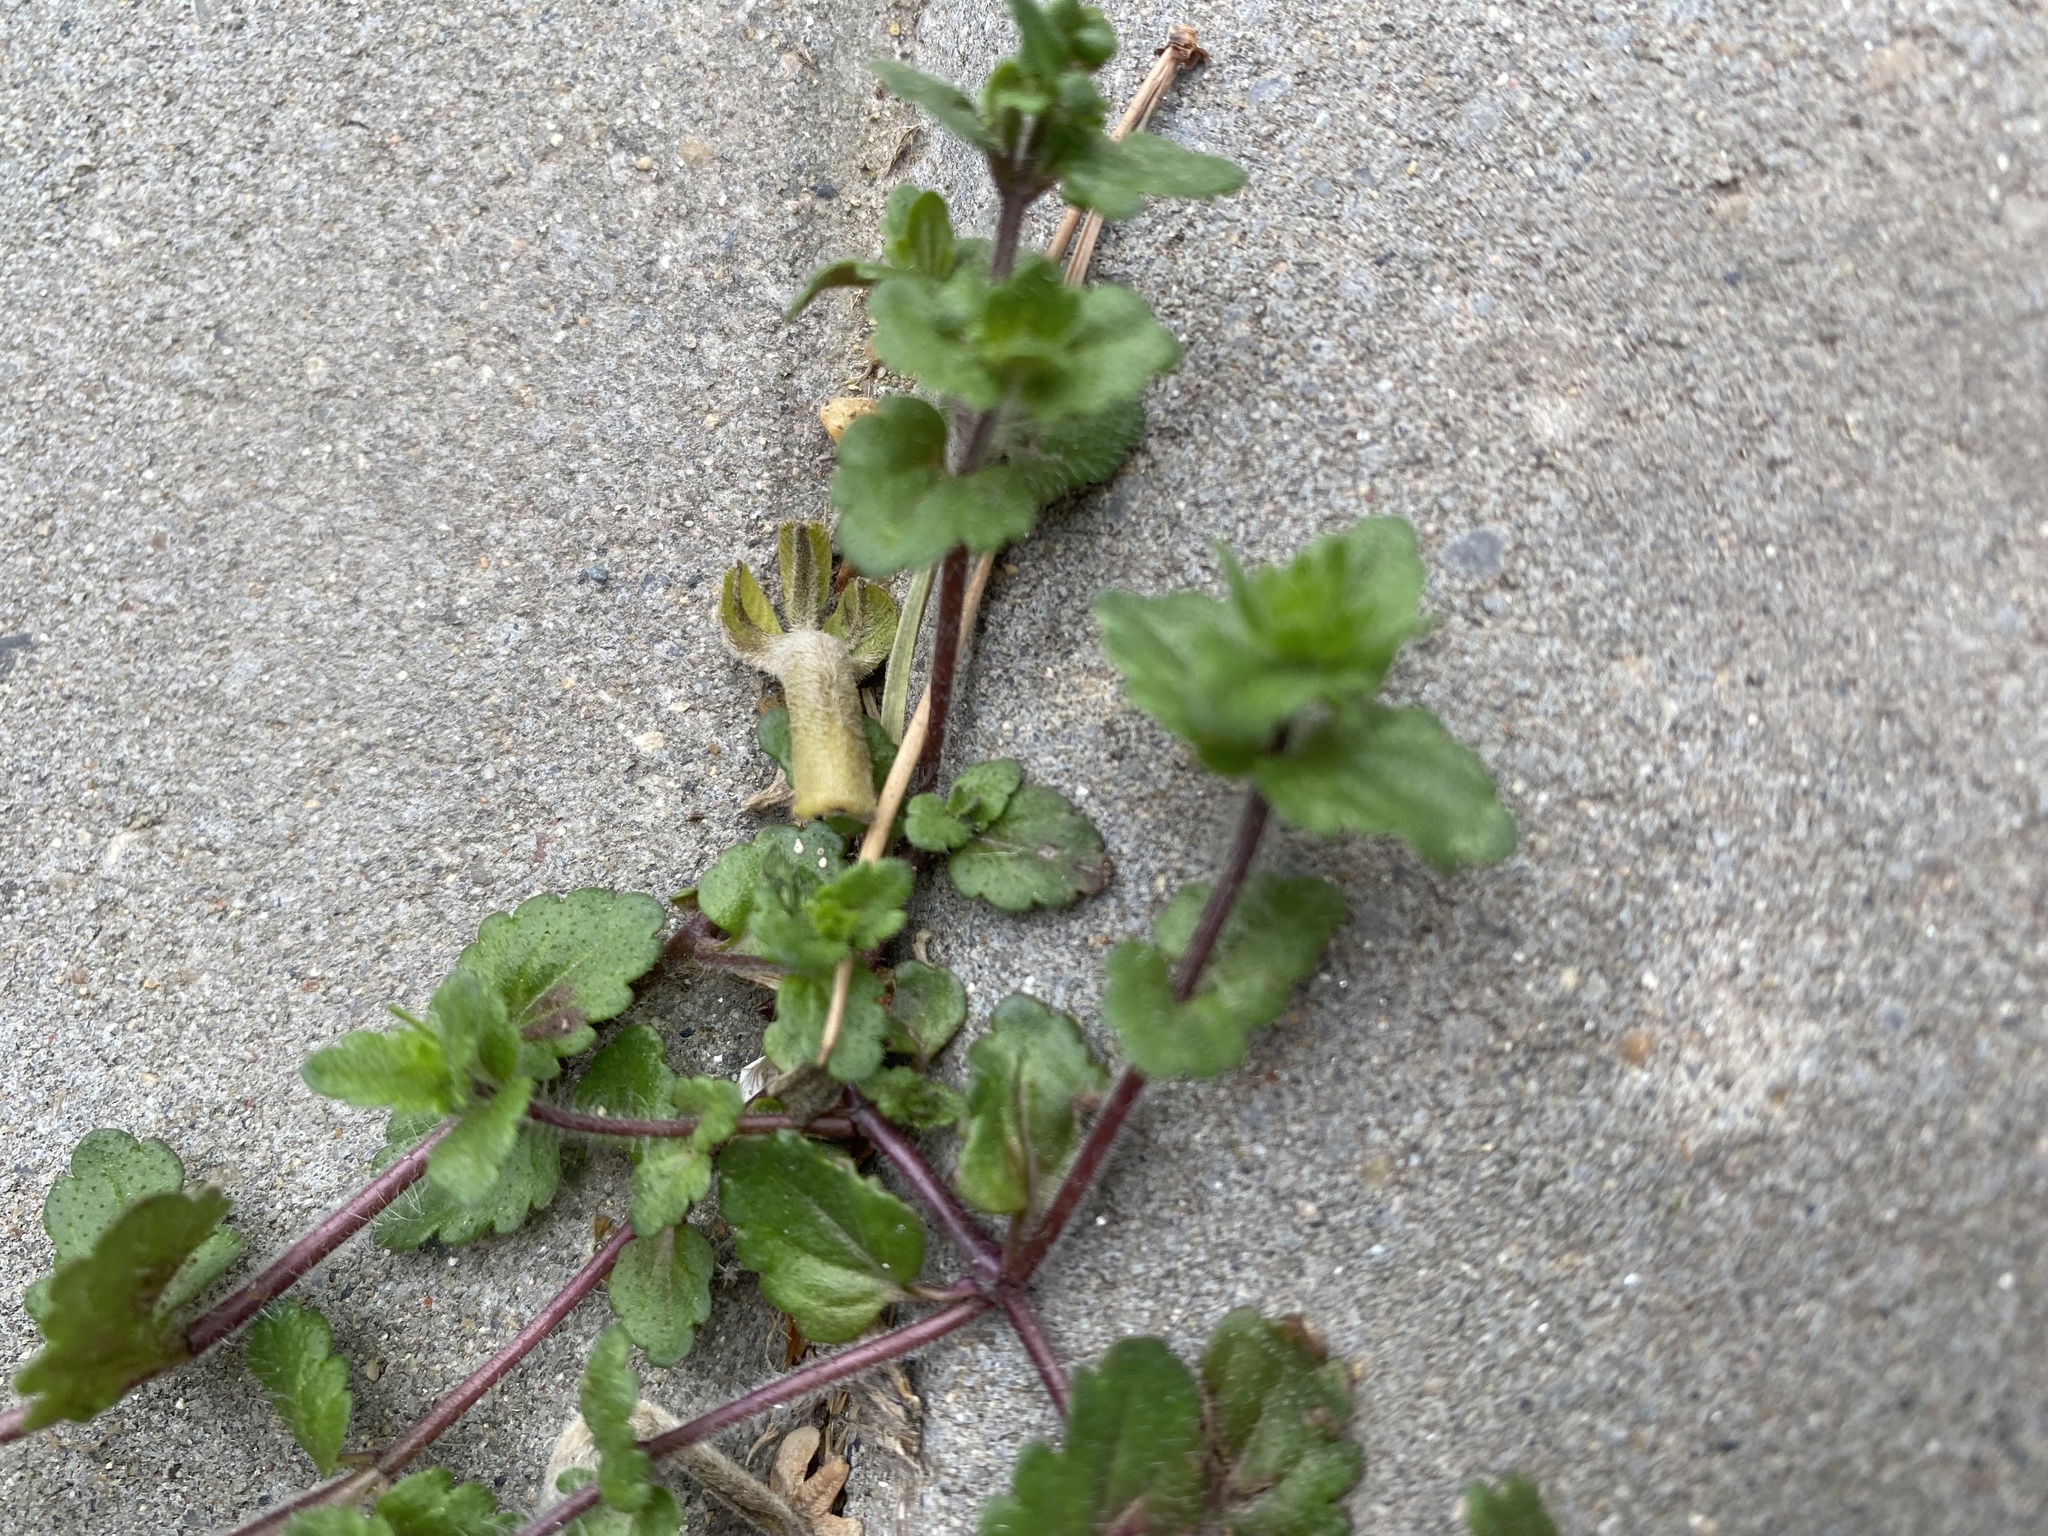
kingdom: Plantae
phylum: Tracheophyta
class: Magnoliopsida
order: Lamiales
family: Plantaginaceae
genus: Veronica
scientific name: Veronica arvensis
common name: Corn speedwell
